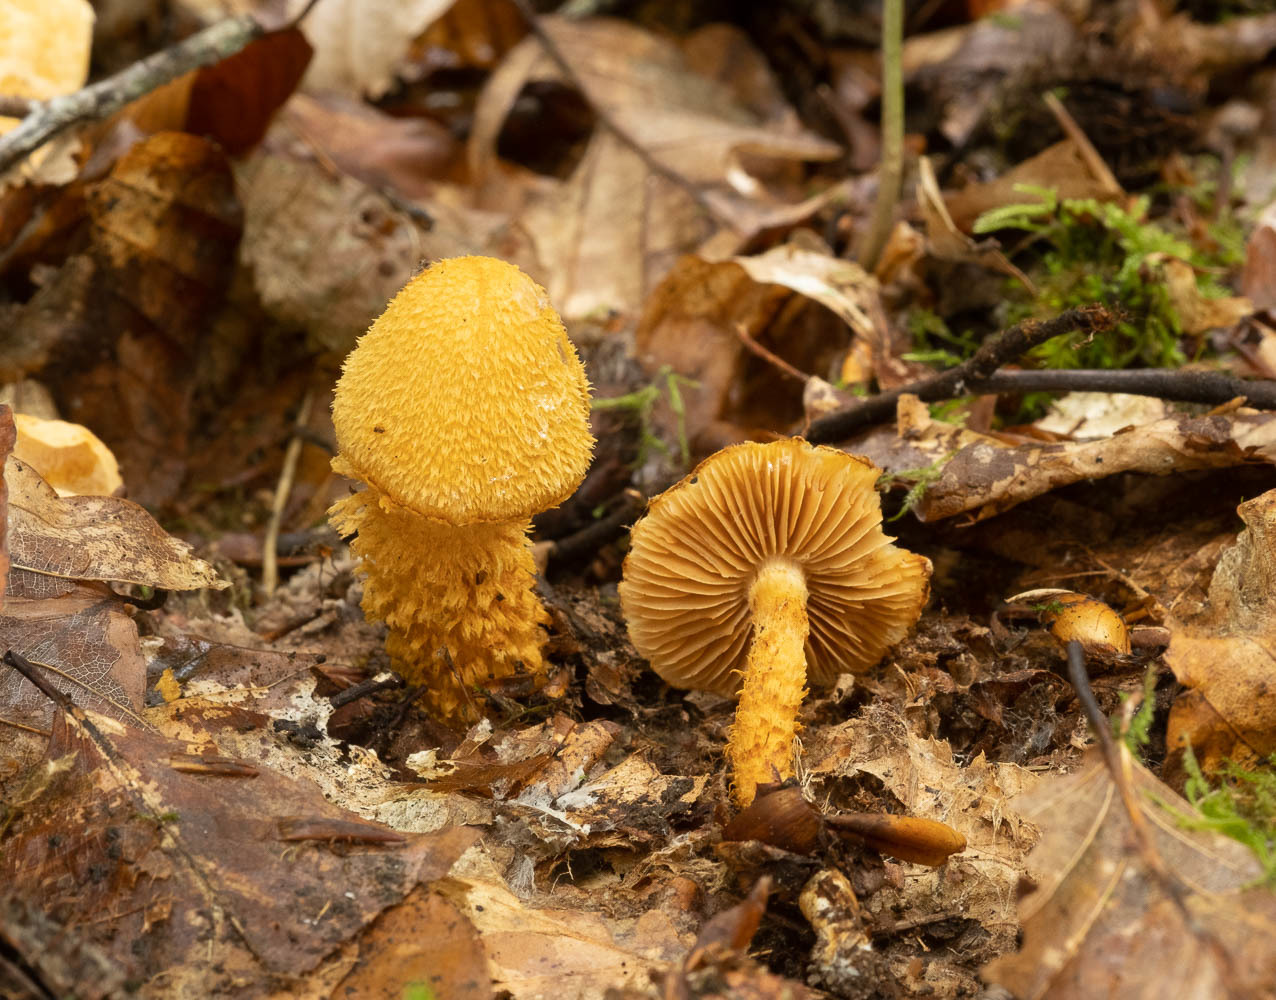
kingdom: Fungi
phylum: Basidiomycota
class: Agaricomycetes
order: Agaricales
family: Cortinariaceae
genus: Cortinarius
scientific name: Cortinarius humicola
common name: Golden webcap
